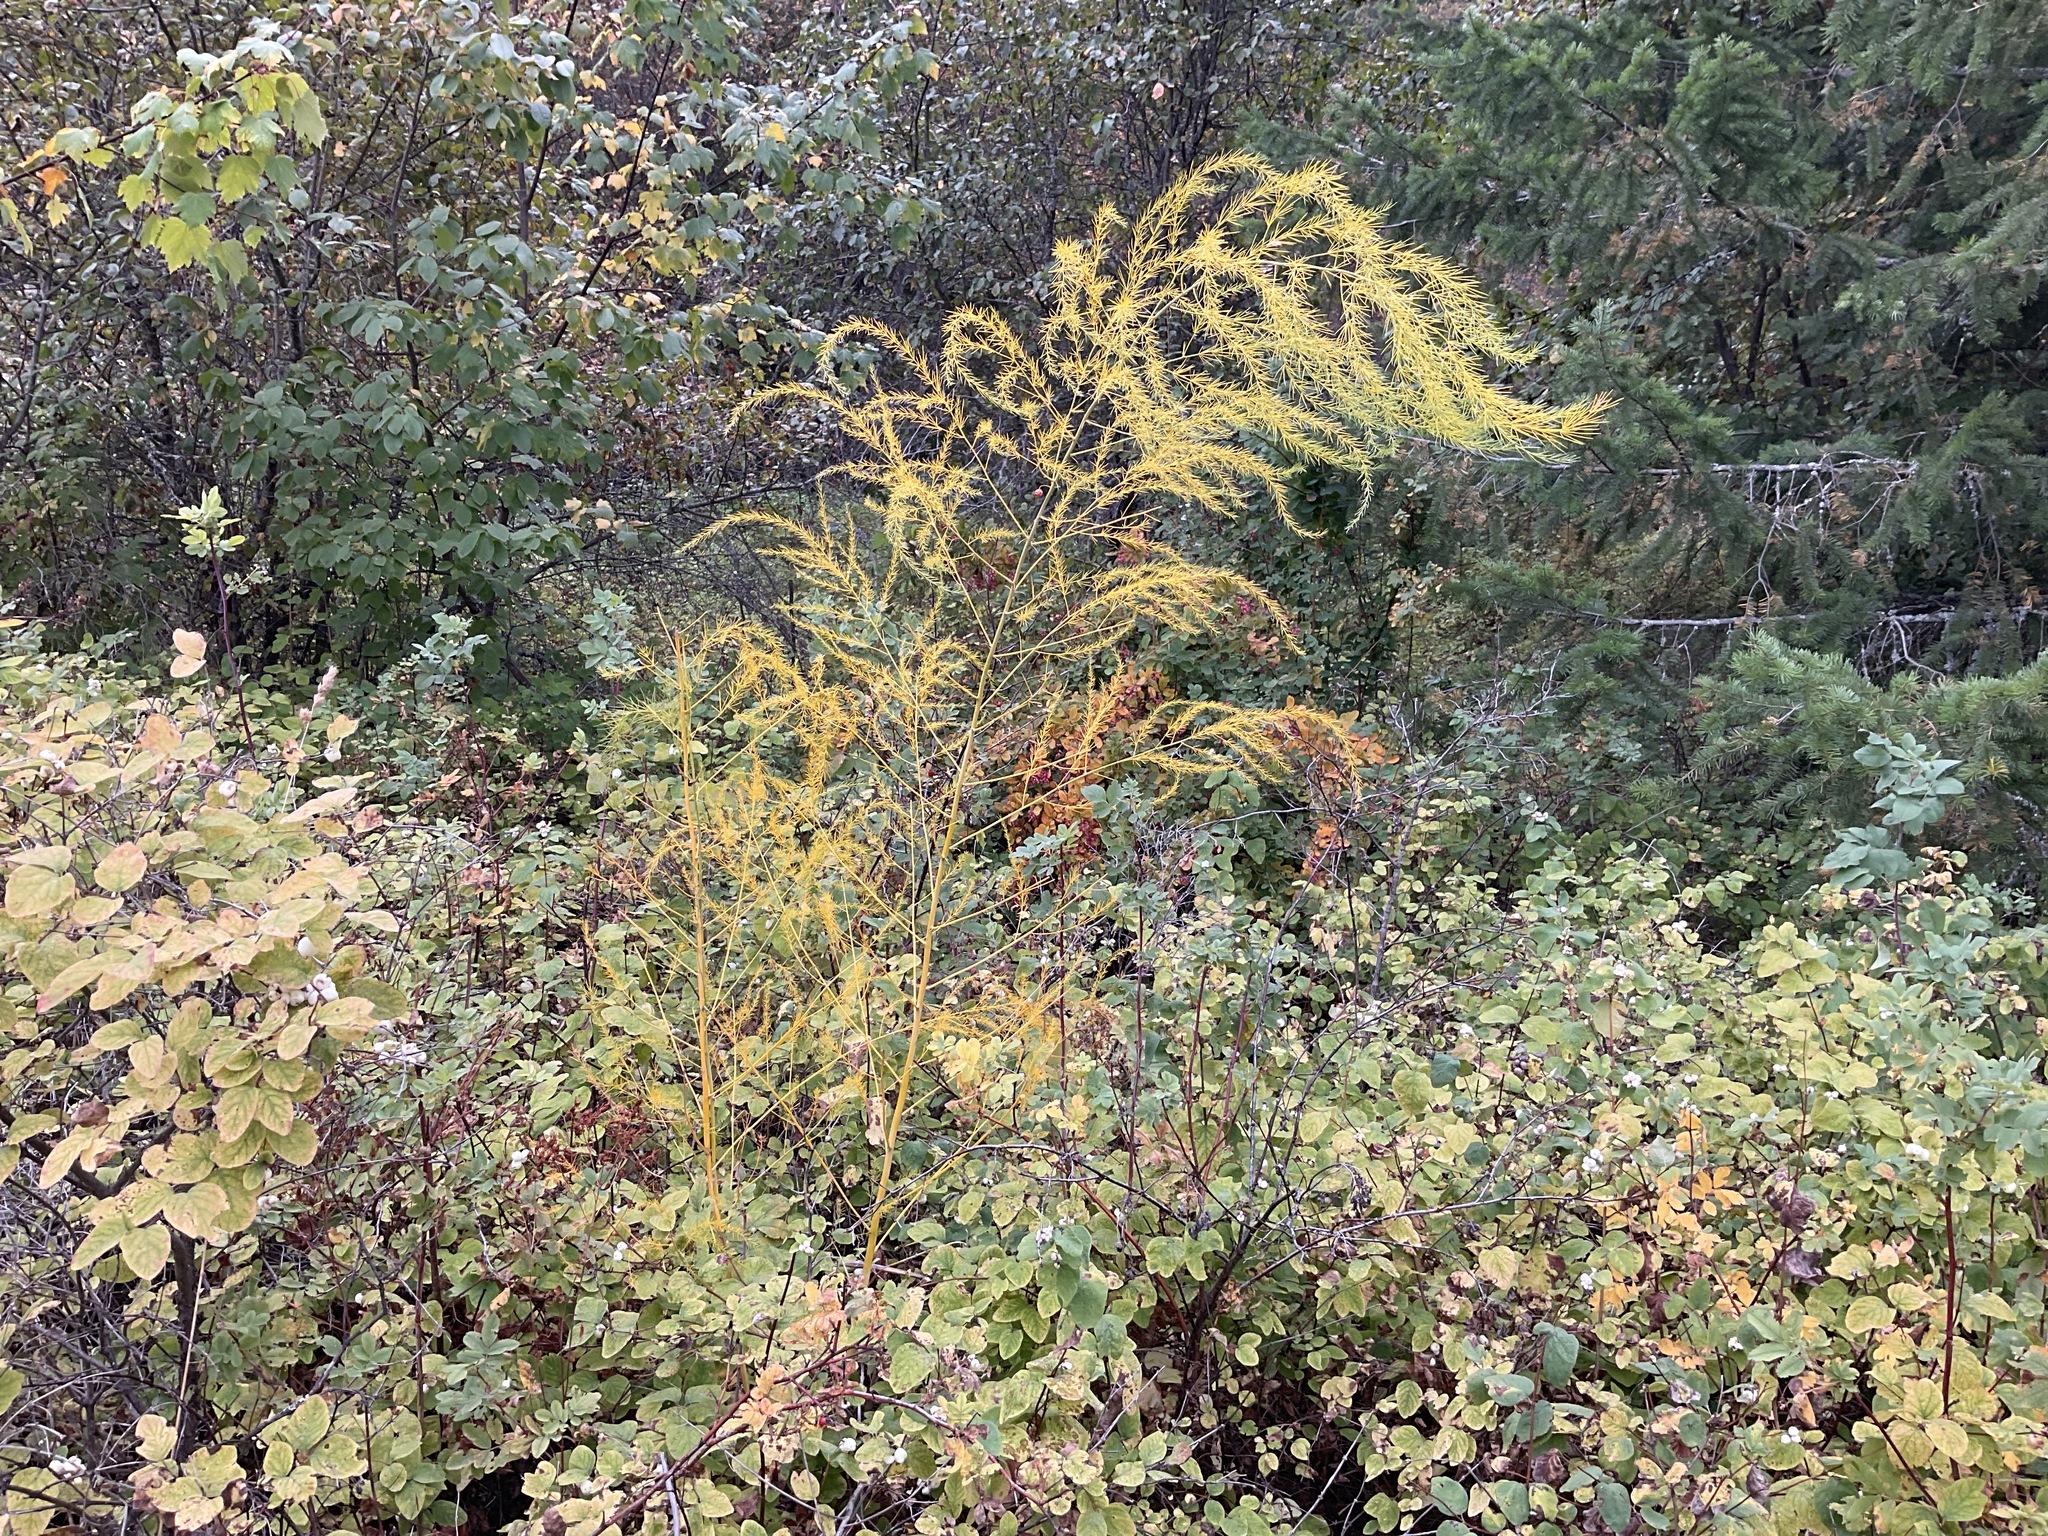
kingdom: Plantae
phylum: Tracheophyta
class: Liliopsida
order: Asparagales
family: Asparagaceae
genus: Asparagus
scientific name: Asparagus officinalis
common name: Garden asparagus
